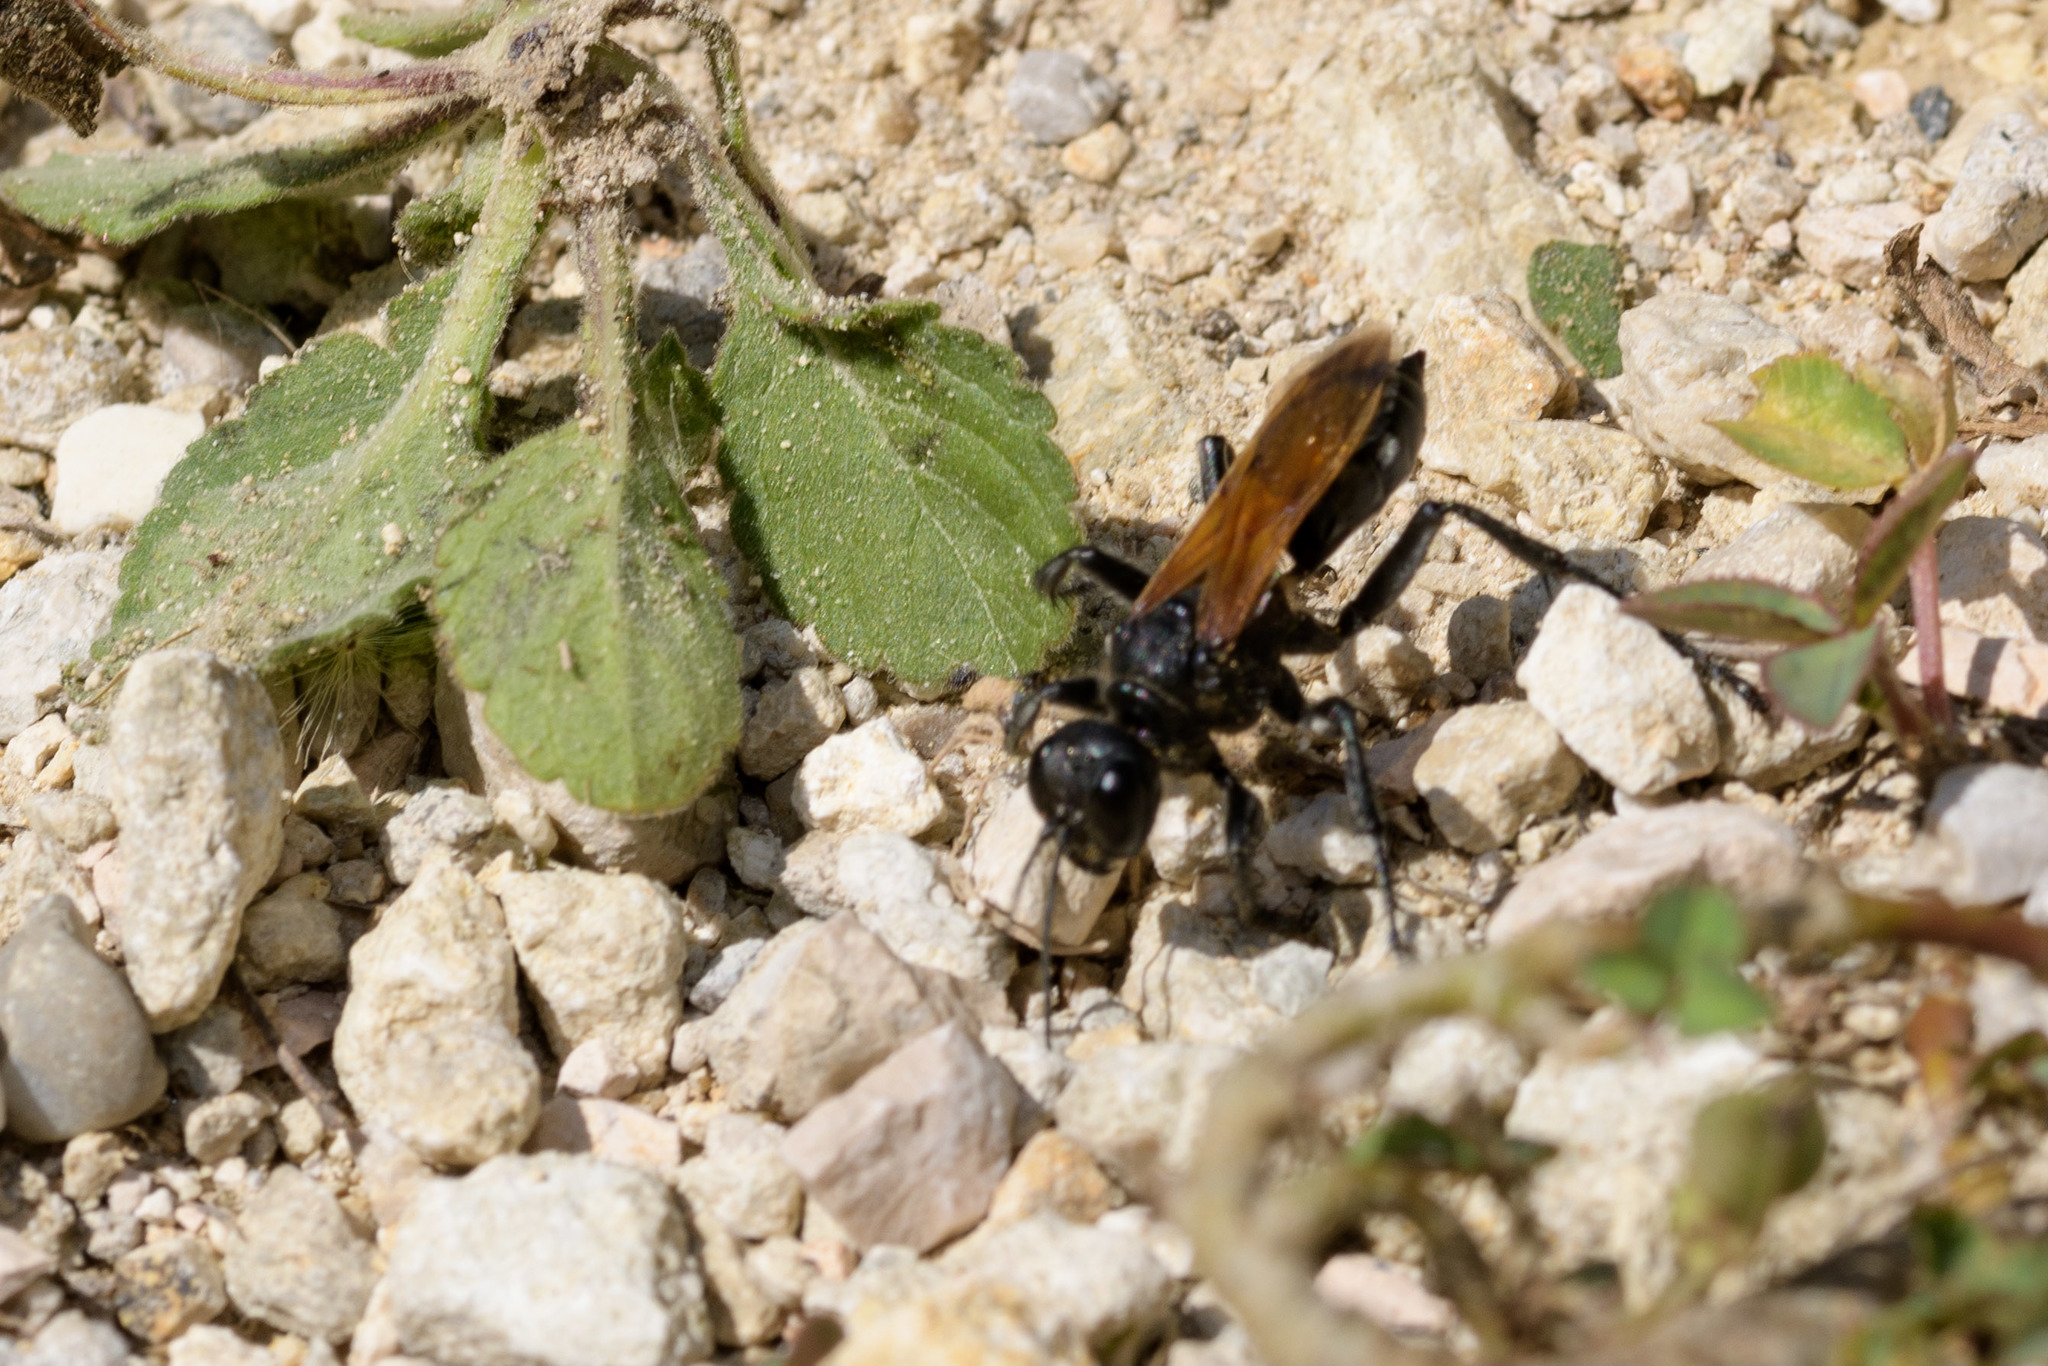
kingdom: Animalia
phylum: Arthropoda
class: Insecta
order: Hymenoptera
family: Sphecidae
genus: Prionyx
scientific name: Prionyx subfuscatus
